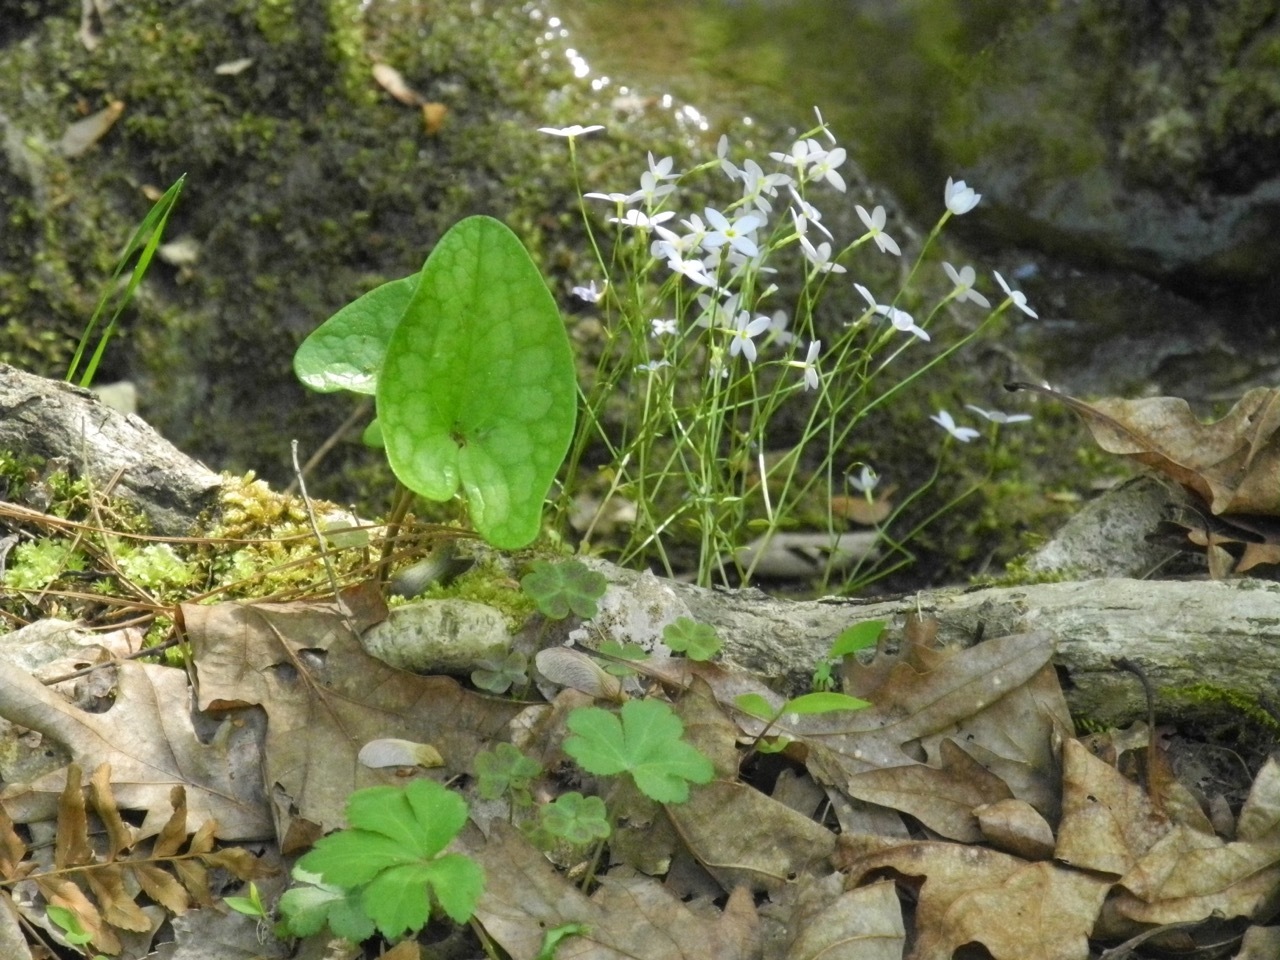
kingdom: Plantae
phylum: Tracheophyta
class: Magnoliopsida
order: Gentianales
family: Rubiaceae
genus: Houstonia
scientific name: Houstonia caerulea
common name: Bluets
